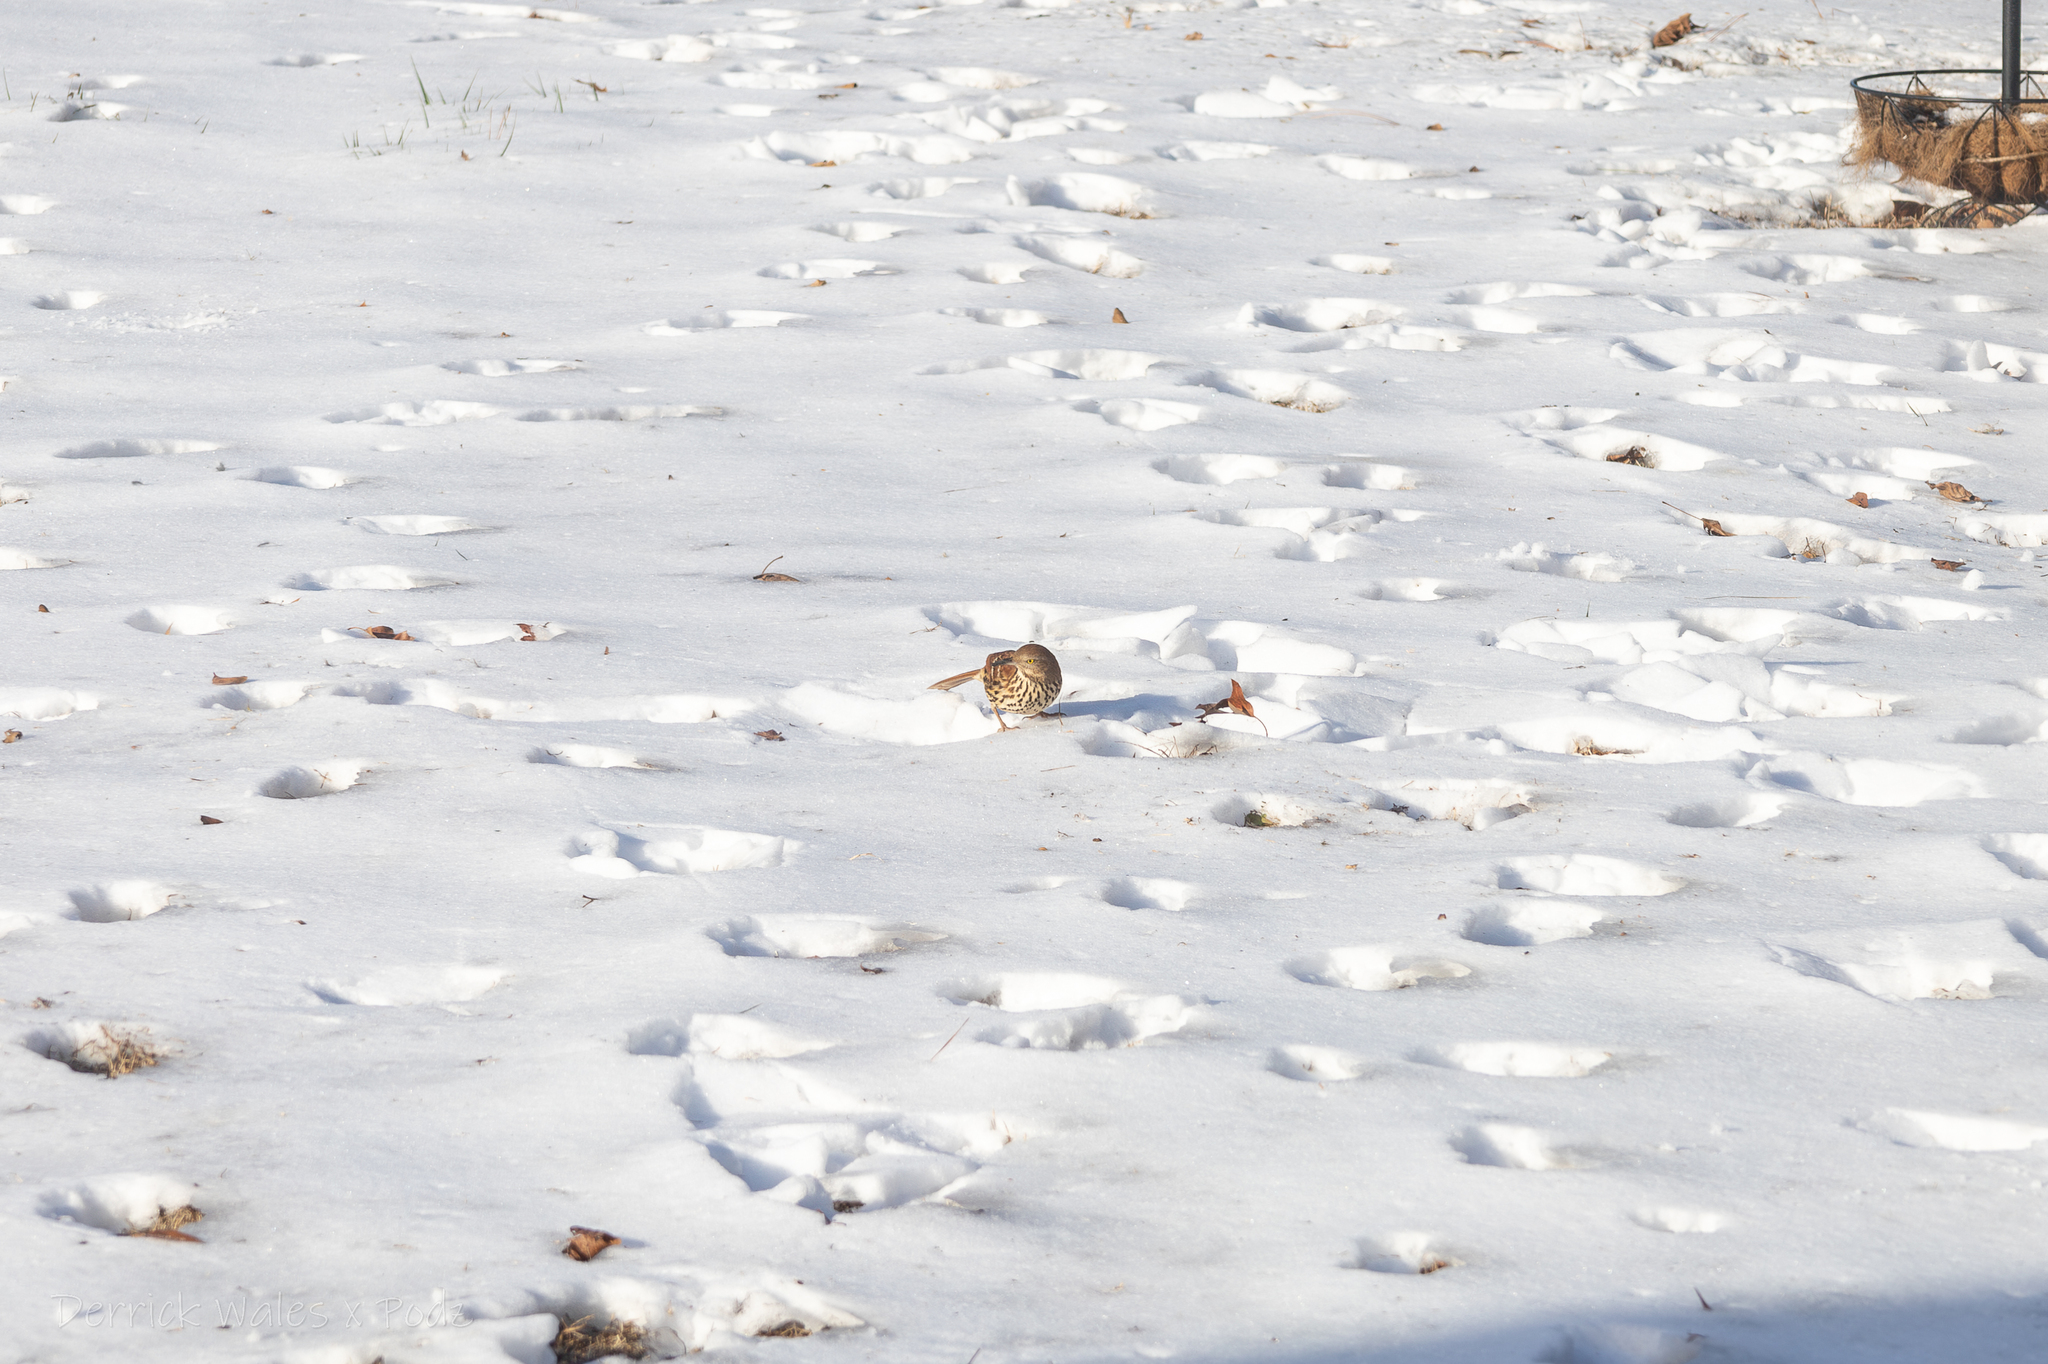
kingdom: Animalia
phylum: Chordata
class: Aves
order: Passeriformes
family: Mimidae
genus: Toxostoma
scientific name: Toxostoma rufum
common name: Brown thrasher
